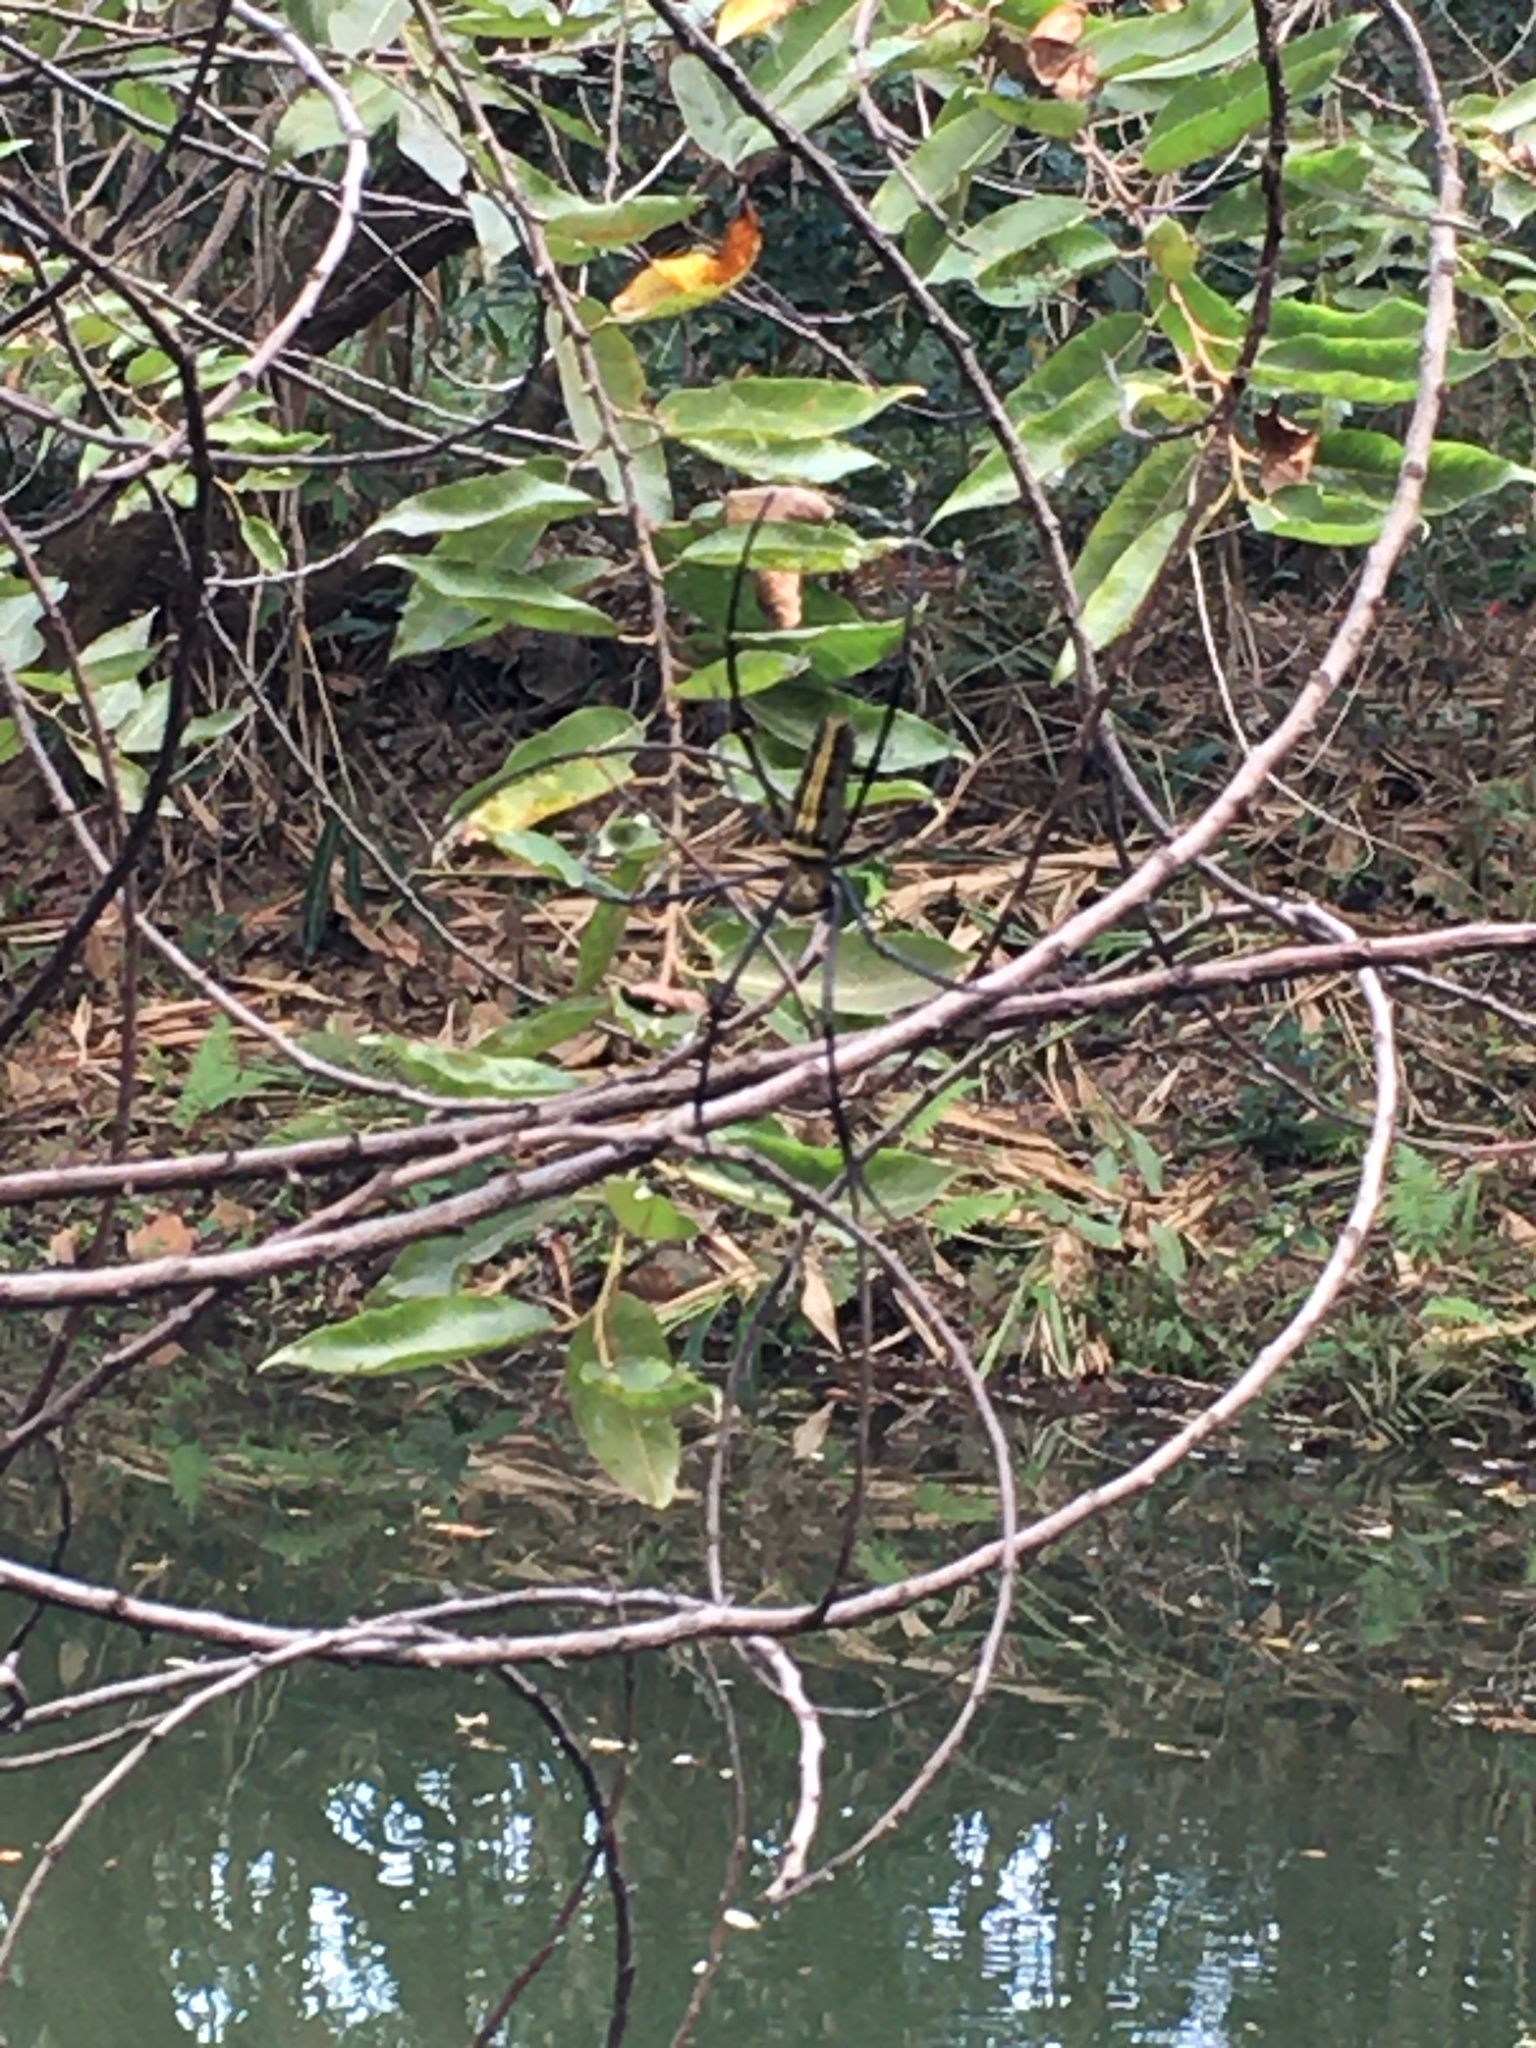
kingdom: Animalia
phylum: Arthropoda
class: Arachnida
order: Araneae
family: Araneidae
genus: Nephila
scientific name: Nephila pilipes
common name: Giant golden orb weaver
